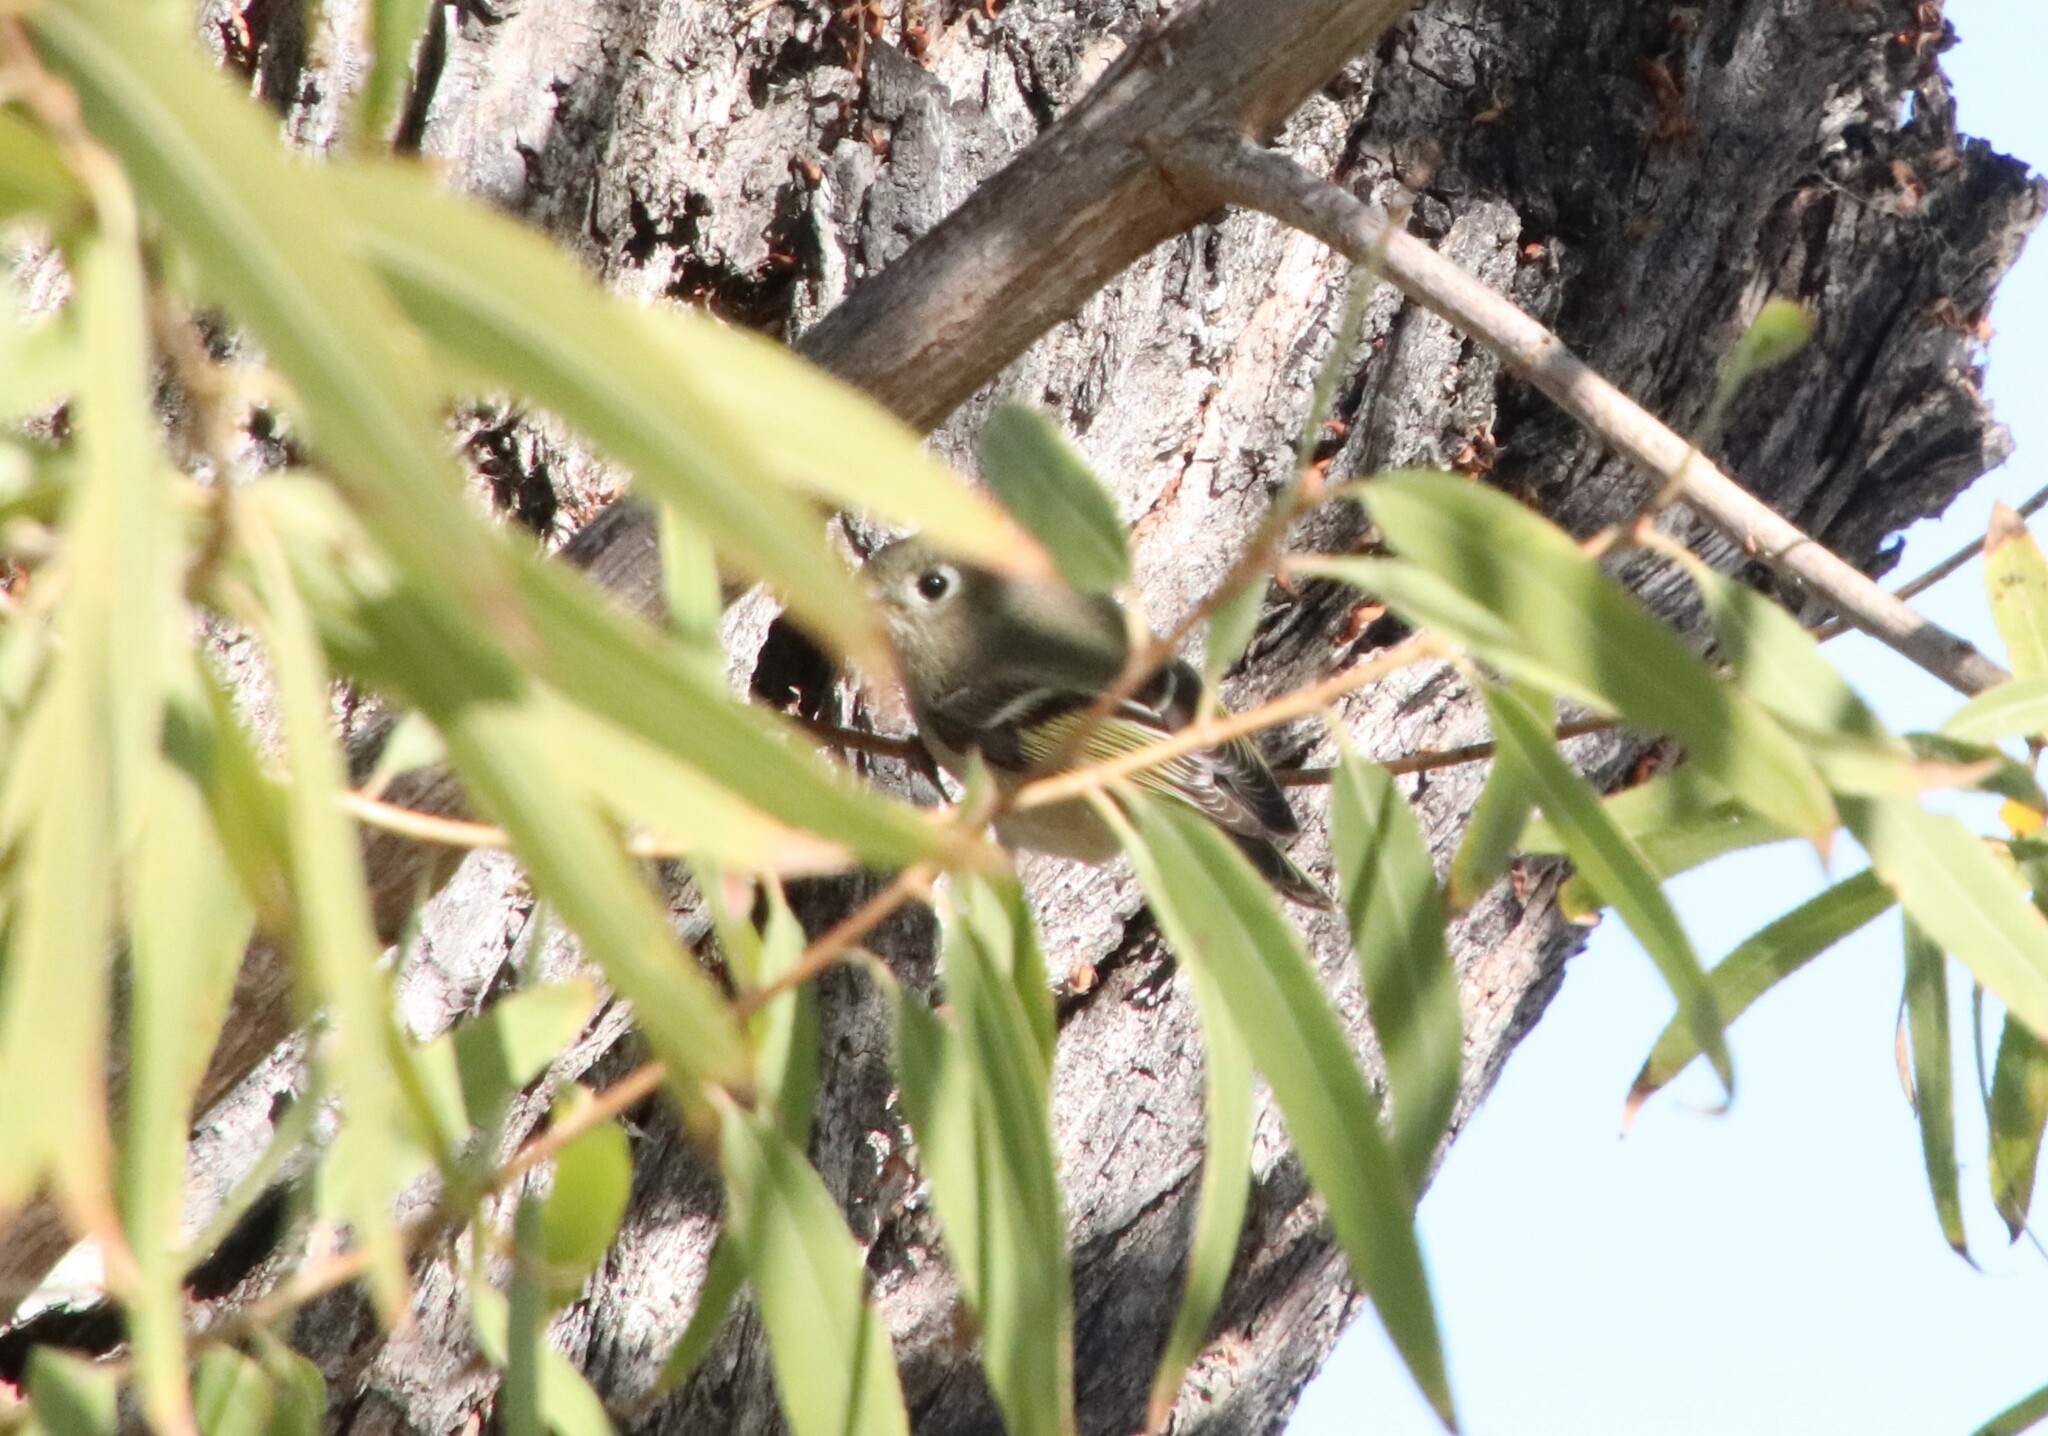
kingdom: Animalia
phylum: Chordata
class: Aves
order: Passeriformes
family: Regulidae
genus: Regulus
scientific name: Regulus calendula
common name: Ruby-crowned kinglet
